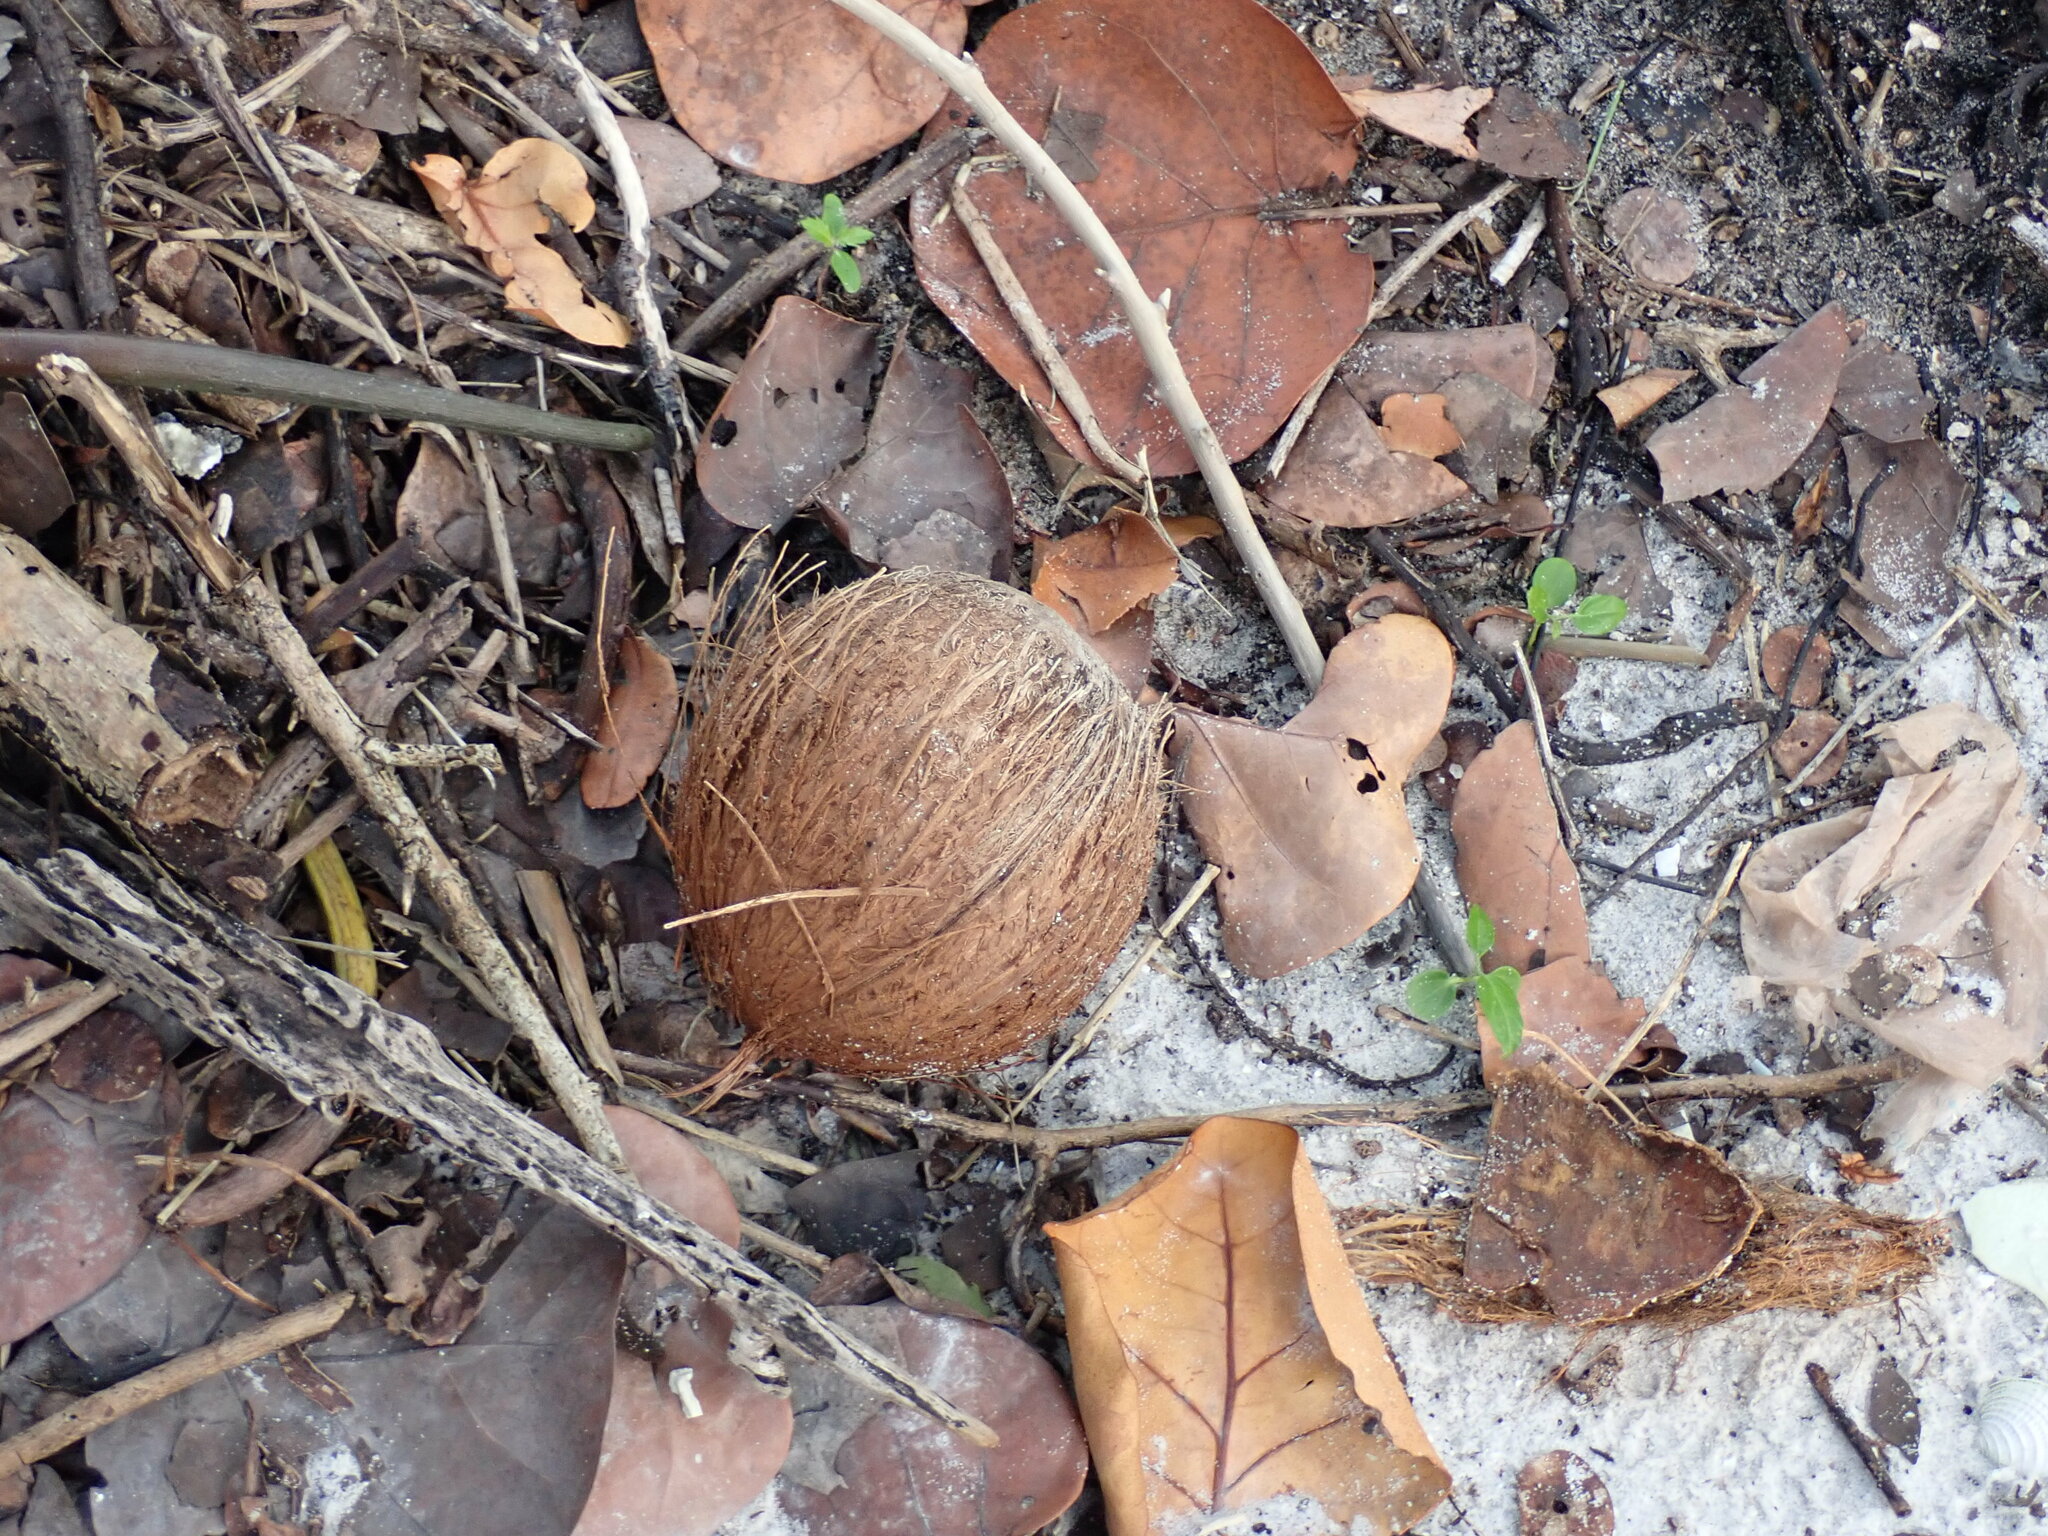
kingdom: Plantae
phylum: Tracheophyta
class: Liliopsida
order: Arecales
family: Arecaceae
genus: Cocos
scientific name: Cocos nucifera
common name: Coconut palm
